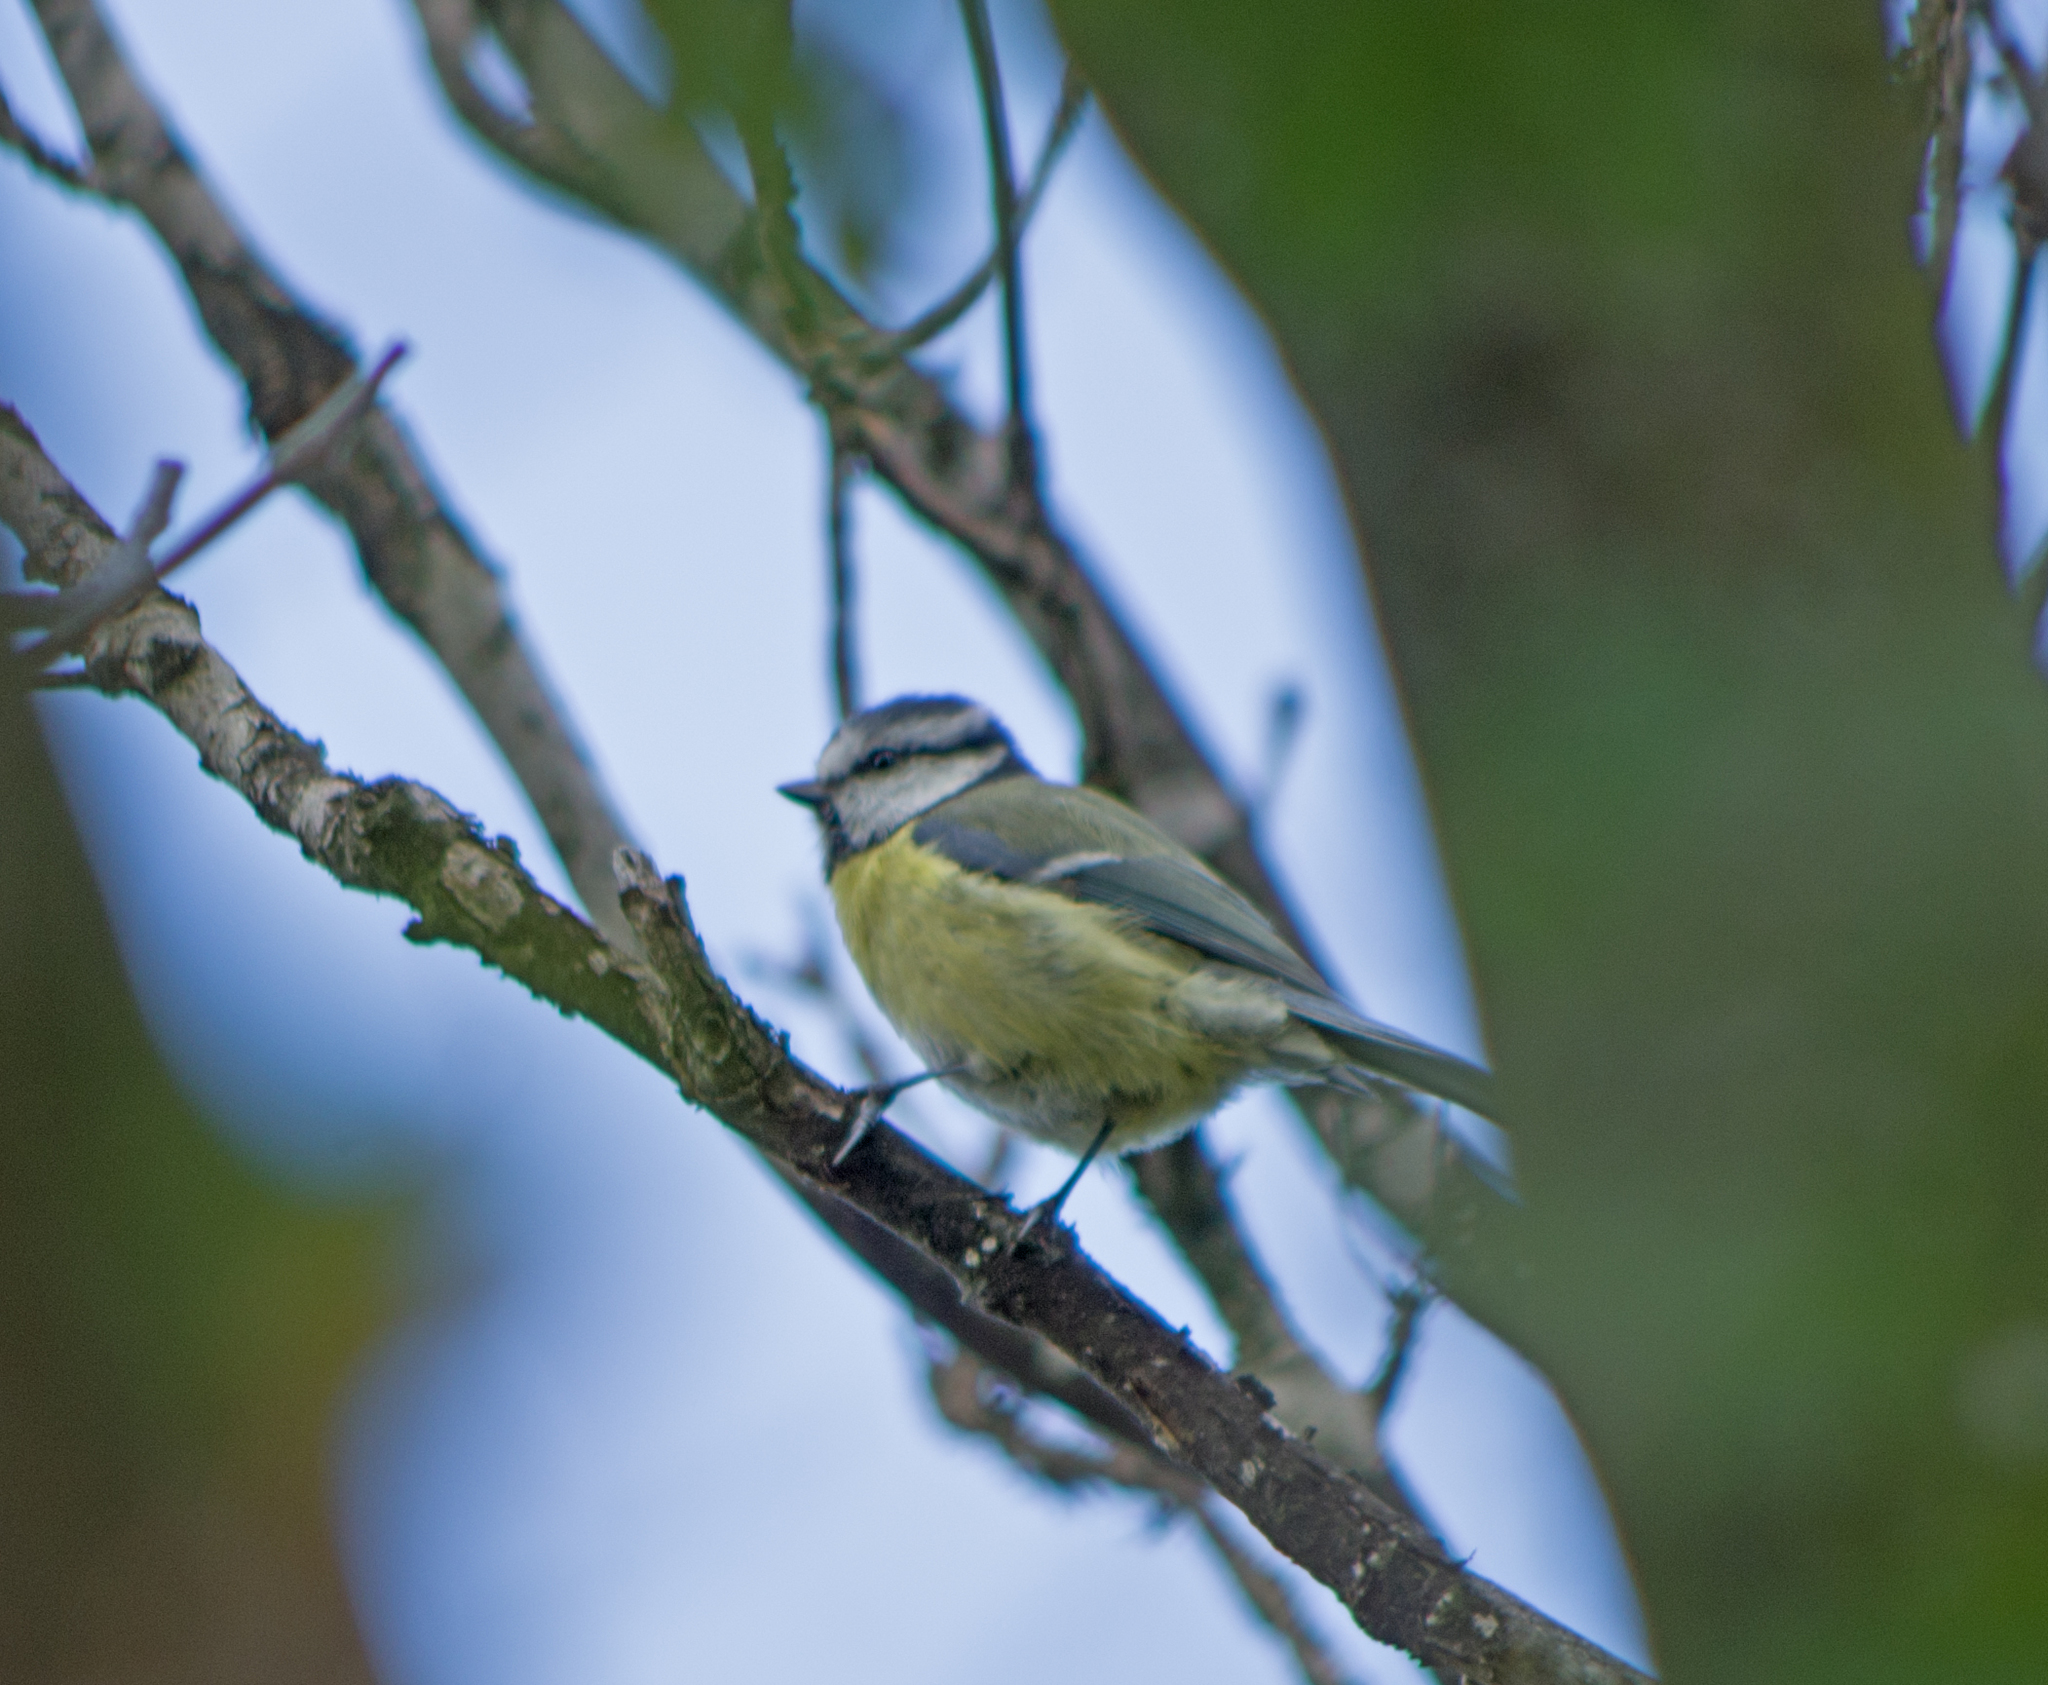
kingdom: Animalia
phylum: Chordata
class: Aves
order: Passeriformes
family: Paridae
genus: Cyanistes
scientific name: Cyanistes caeruleus
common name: Eurasian blue tit
